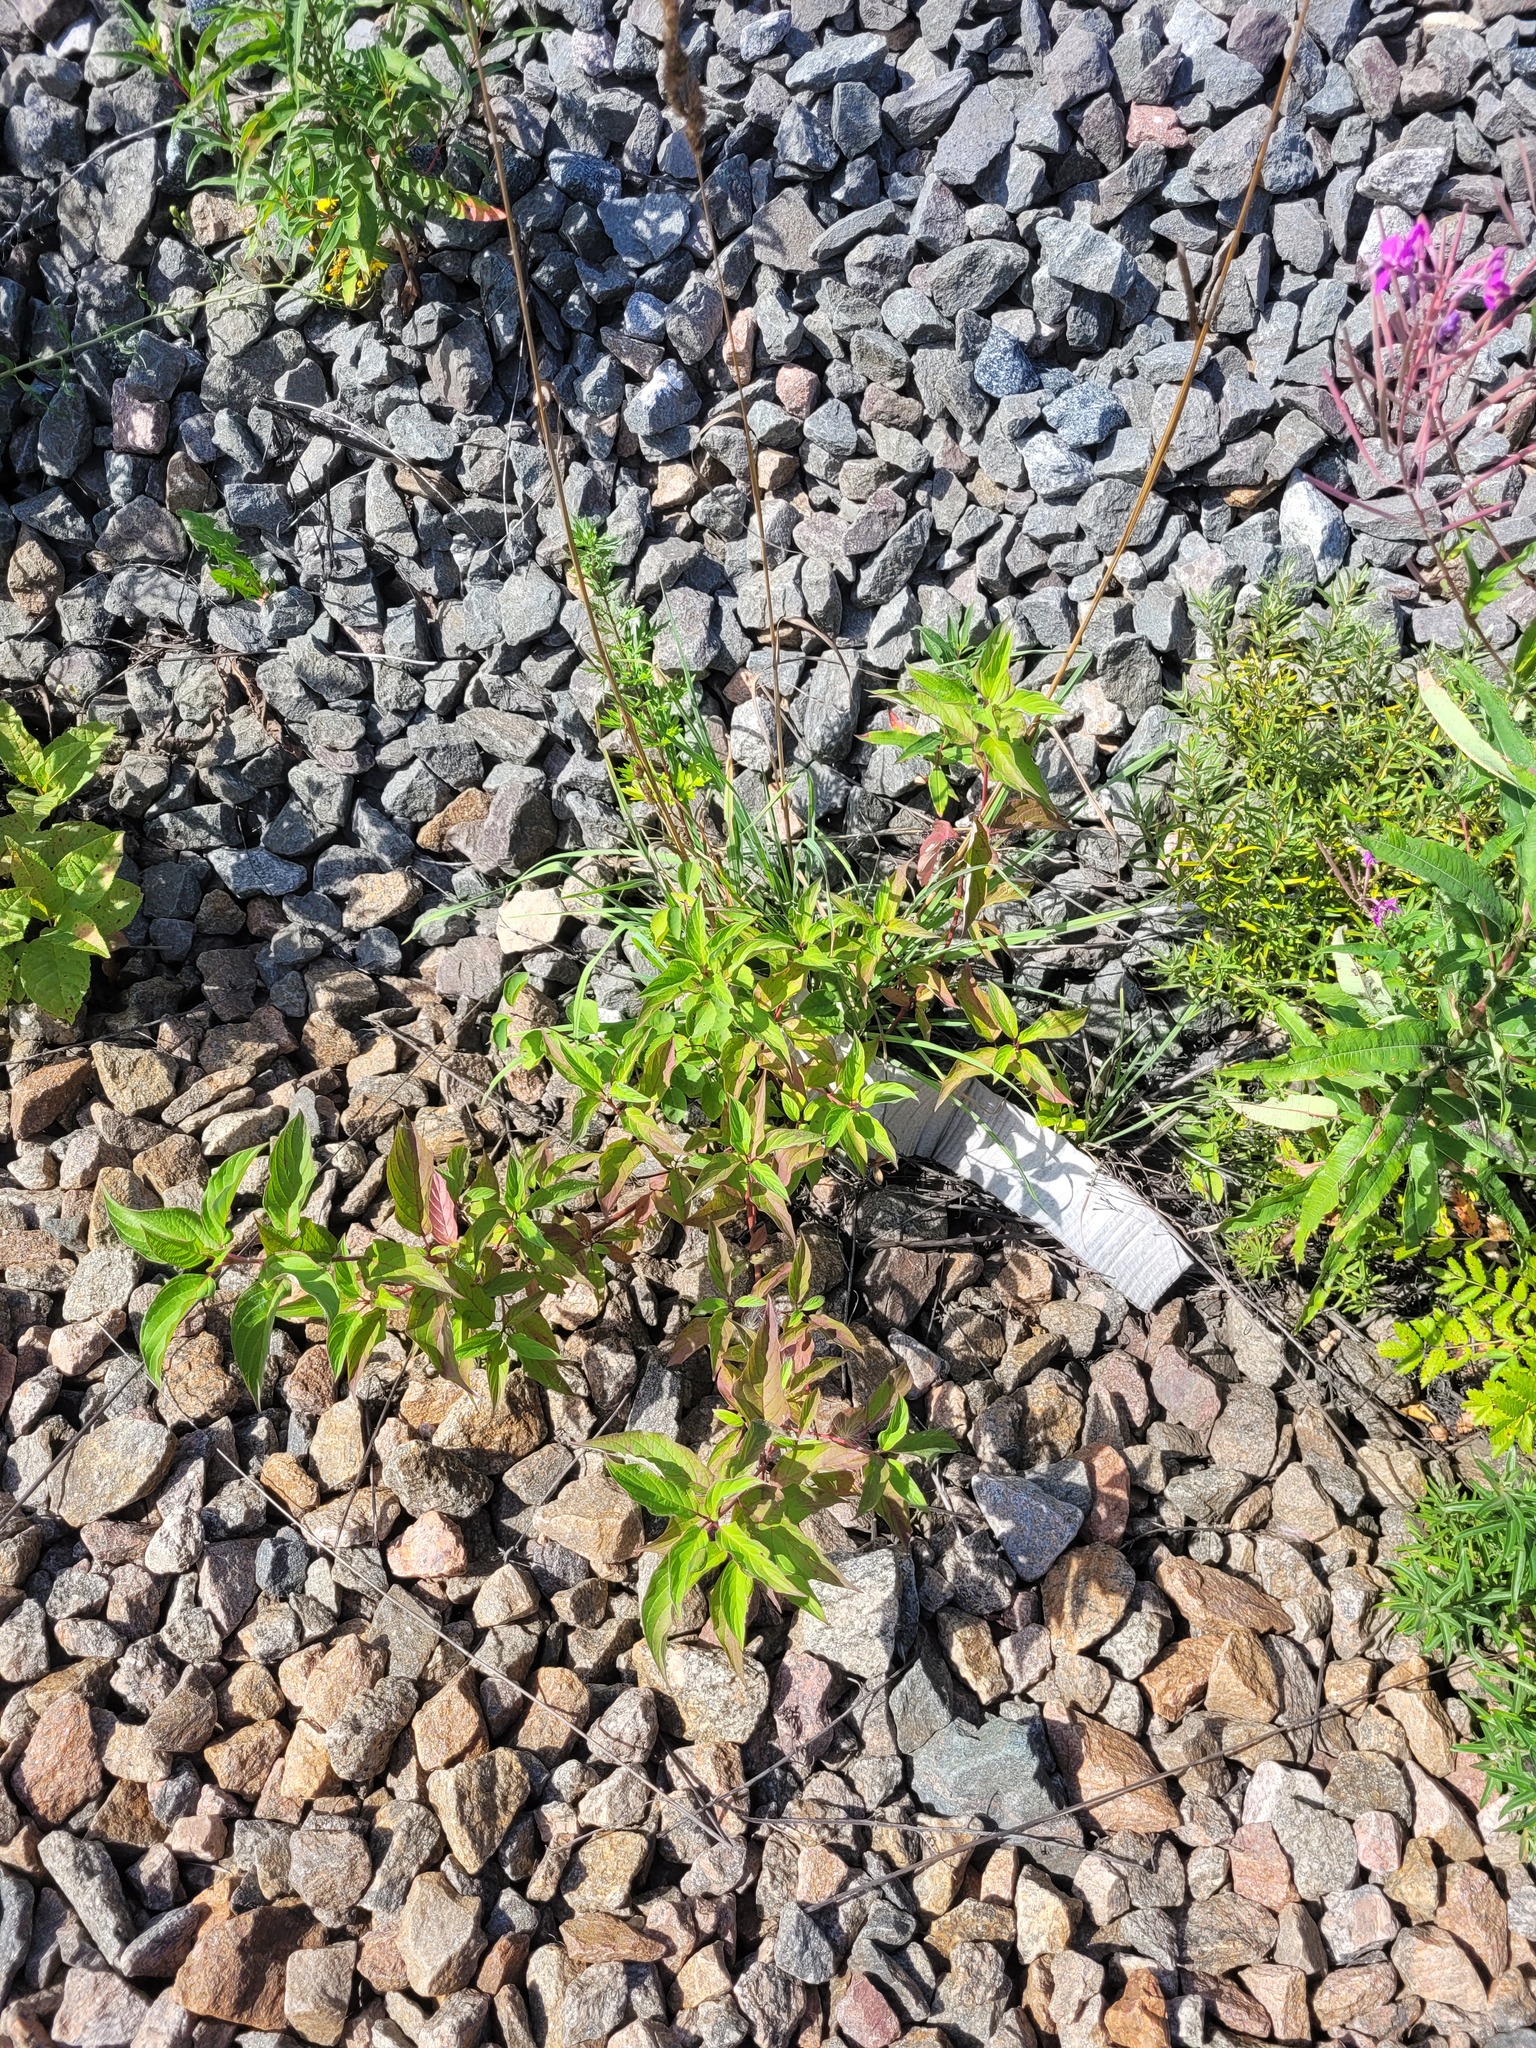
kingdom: Plantae
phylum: Tracheophyta
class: Magnoliopsida
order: Cornales
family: Cornaceae
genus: Cornus
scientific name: Cornus alba
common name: White dogwood
